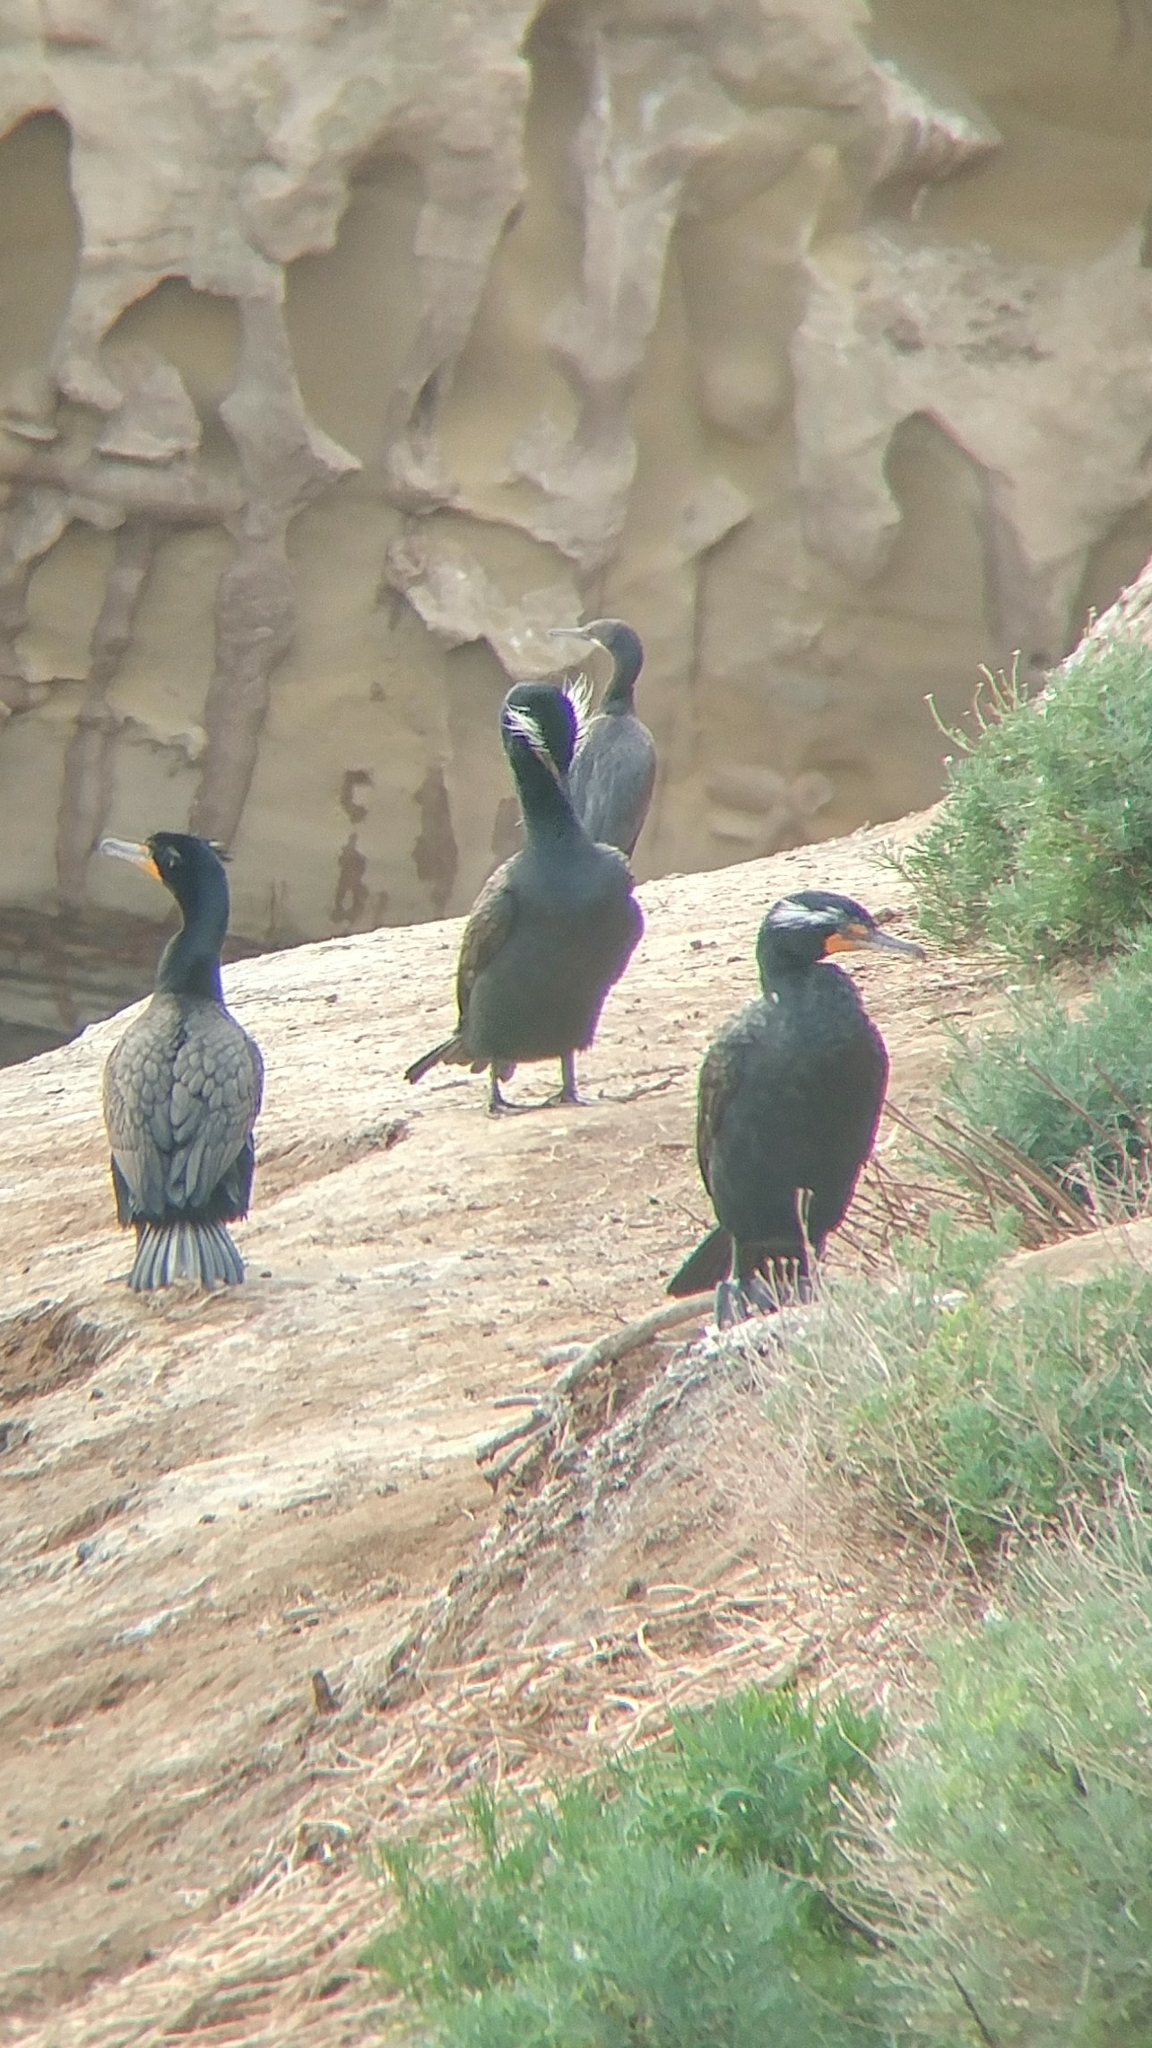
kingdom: Animalia
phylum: Chordata
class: Aves
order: Suliformes
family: Phalacrocoracidae
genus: Phalacrocorax
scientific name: Phalacrocorax auritus
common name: Double-crested cormorant
